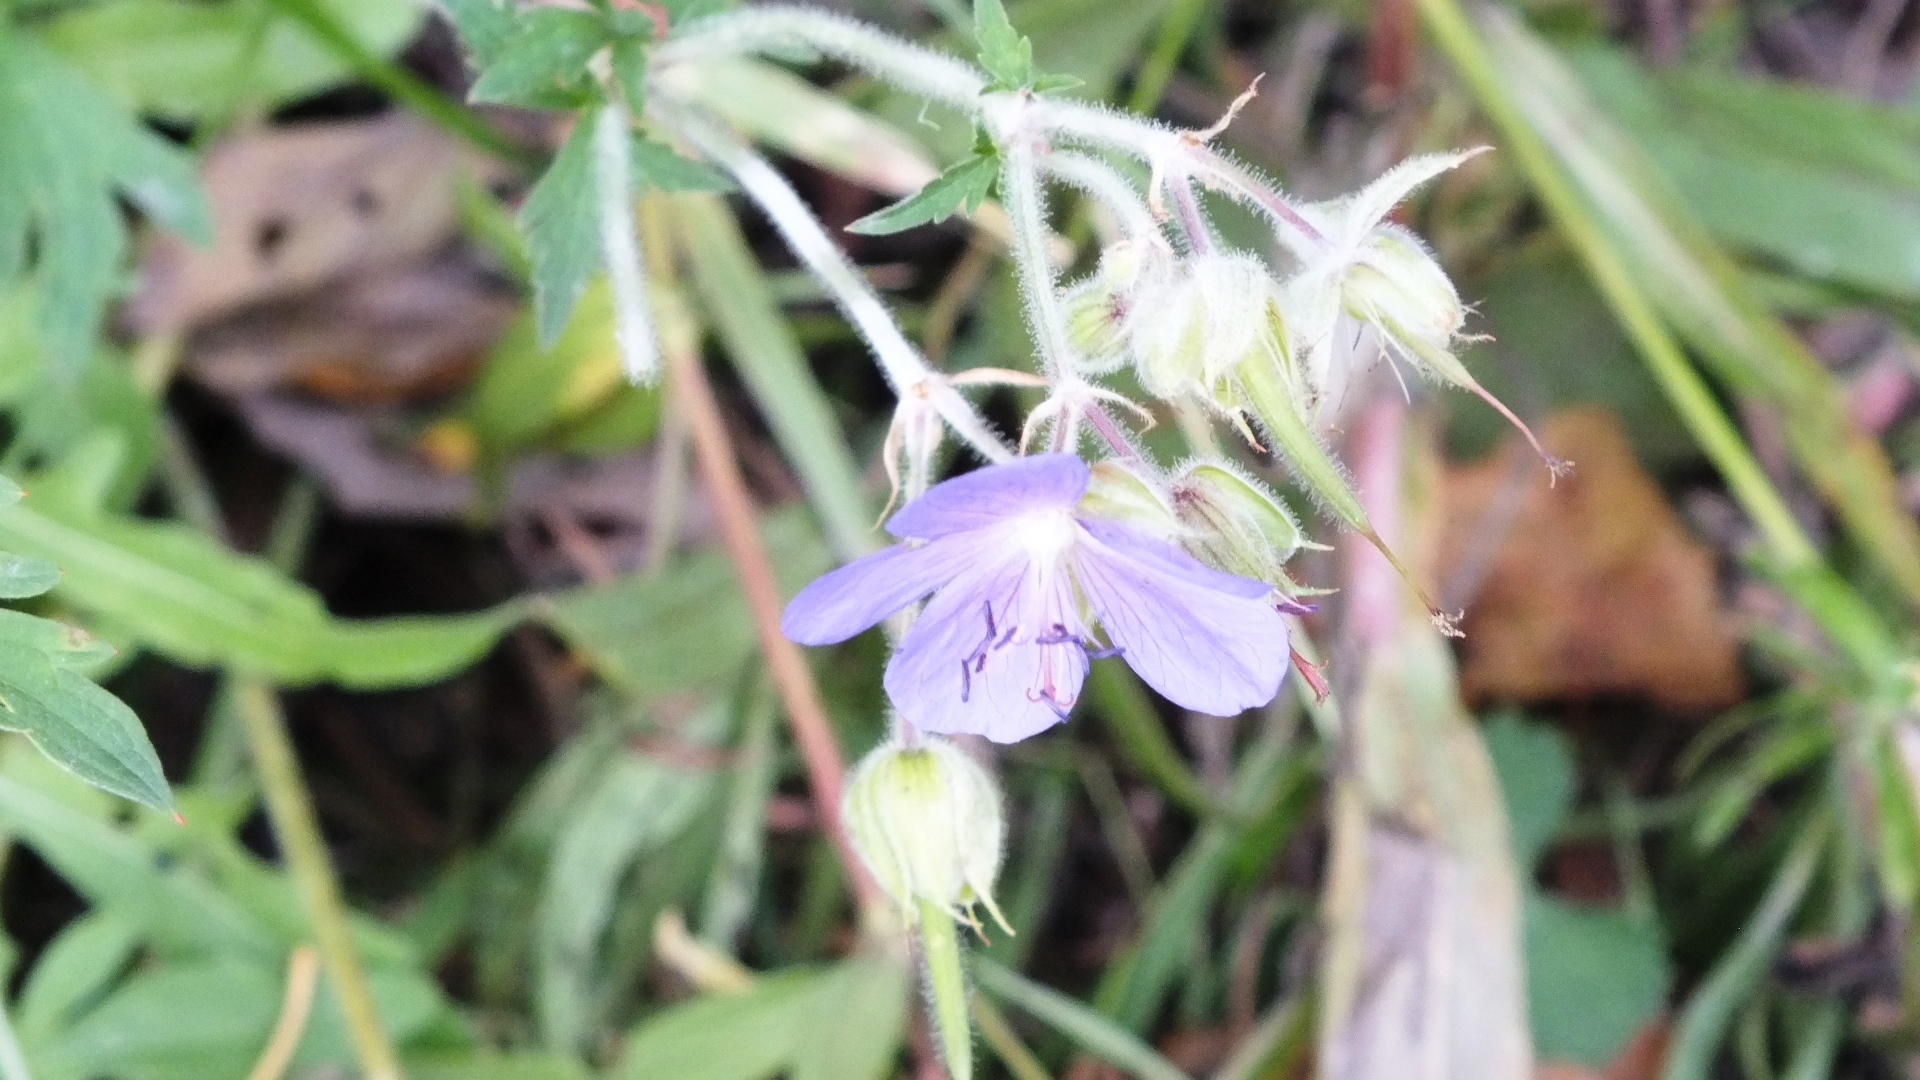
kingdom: Plantae
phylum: Tracheophyta
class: Magnoliopsida
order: Geraniales
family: Geraniaceae
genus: Geranium
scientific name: Geranium pratense
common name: Meadow crane's-bill
